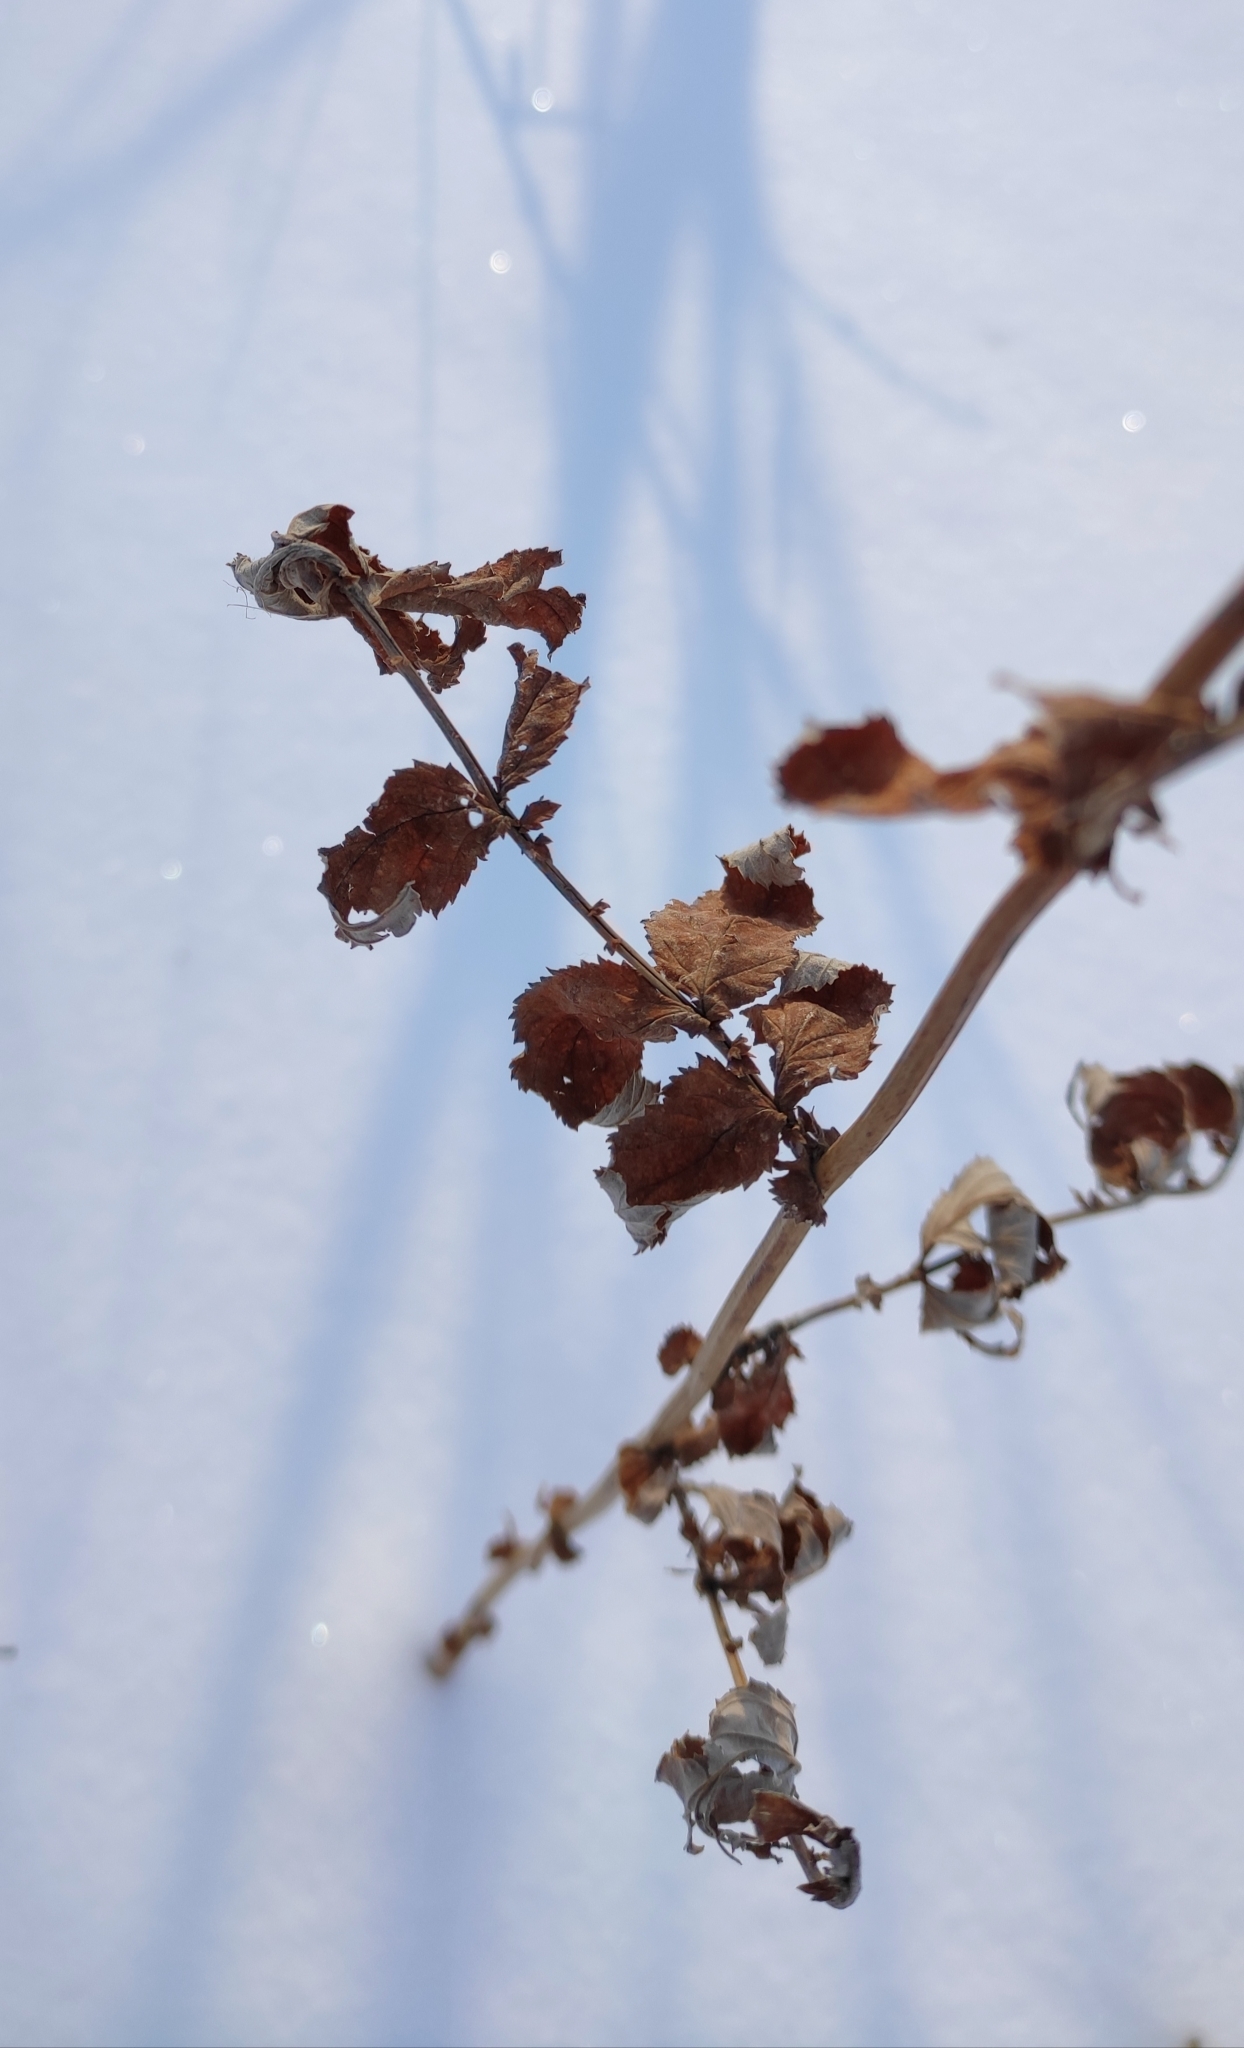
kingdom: Plantae
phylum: Tracheophyta
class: Magnoliopsida
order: Rosales
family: Rosaceae
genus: Filipendula
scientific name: Filipendula ulmaria
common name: Meadowsweet
